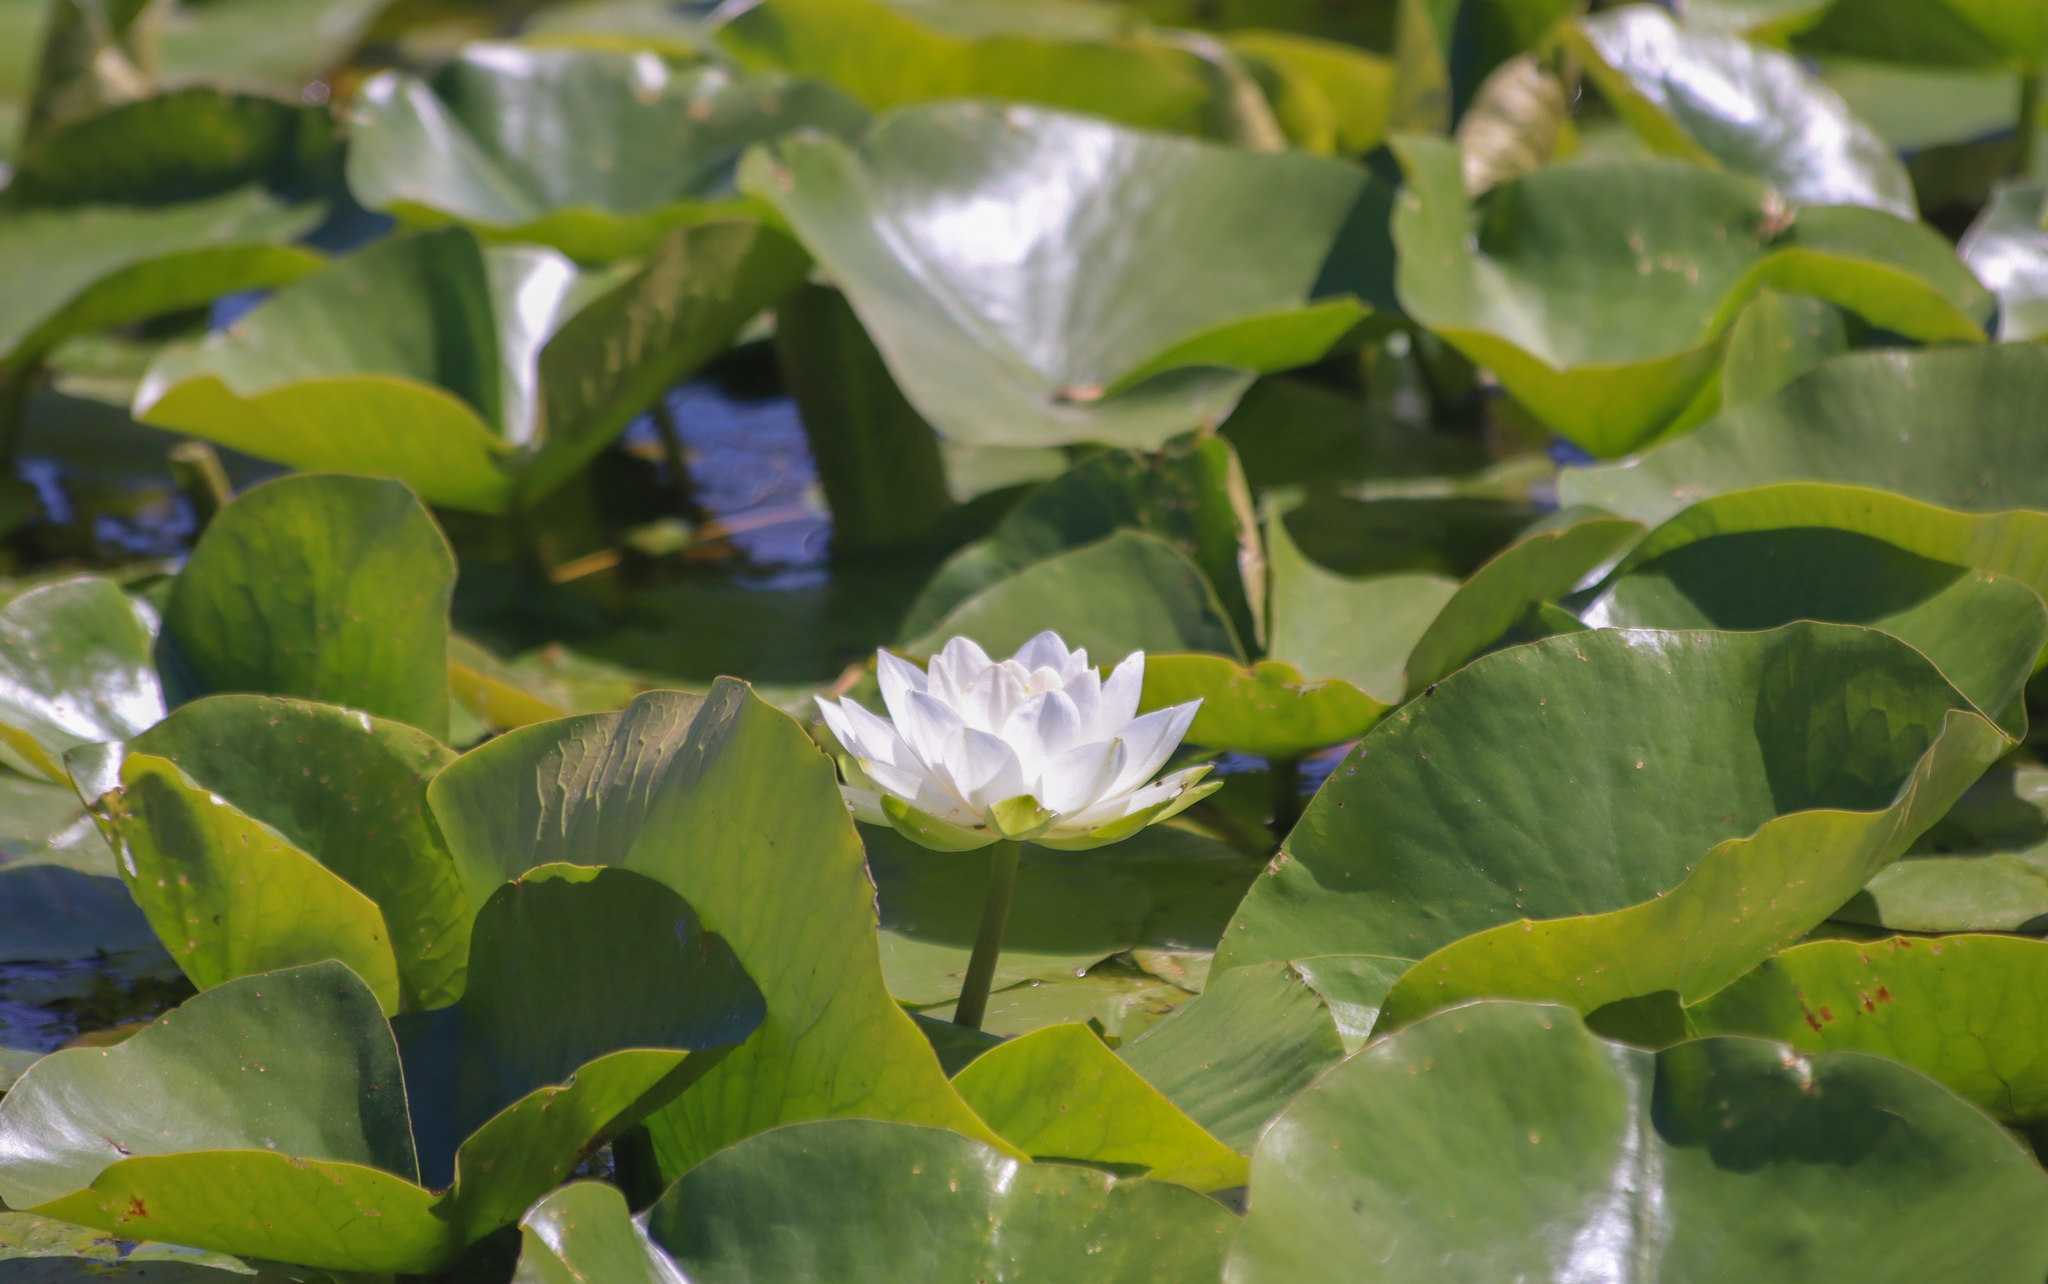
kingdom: Plantae
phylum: Tracheophyta
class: Magnoliopsida
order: Nymphaeales
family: Nymphaeaceae
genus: Nymphaea
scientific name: Nymphaea odorata
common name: Fragrant water-lily
